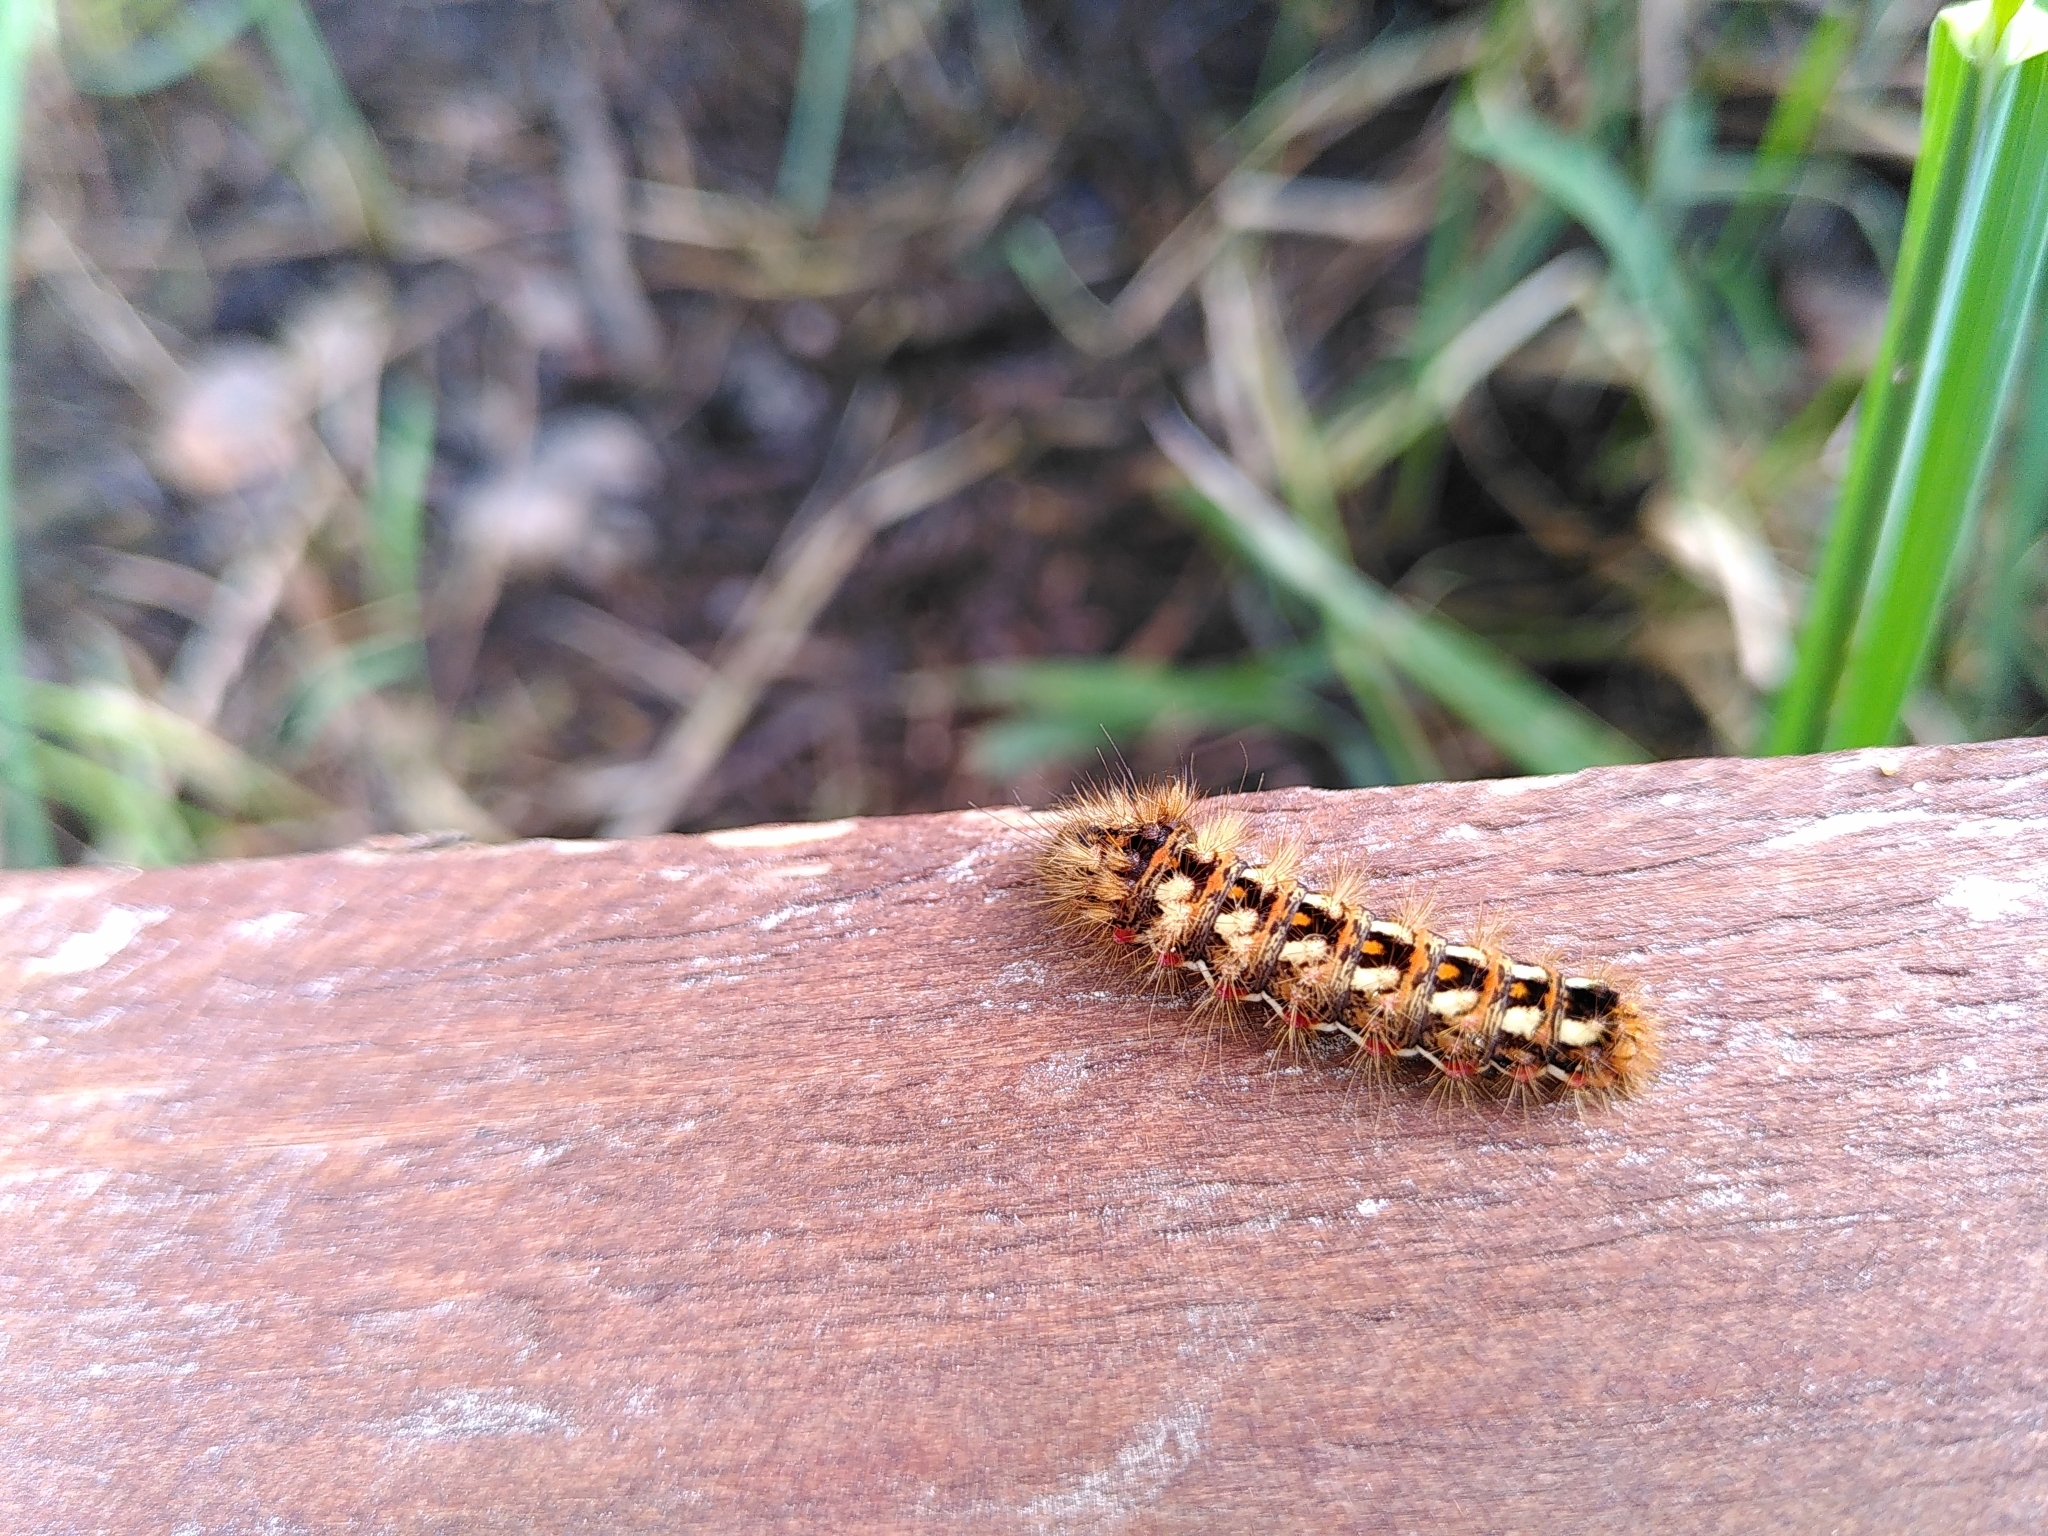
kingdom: Animalia
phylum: Arthropoda
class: Insecta
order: Lepidoptera
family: Noctuidae
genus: Acronicta
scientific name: Acronicta rumicis
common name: Knot grass
